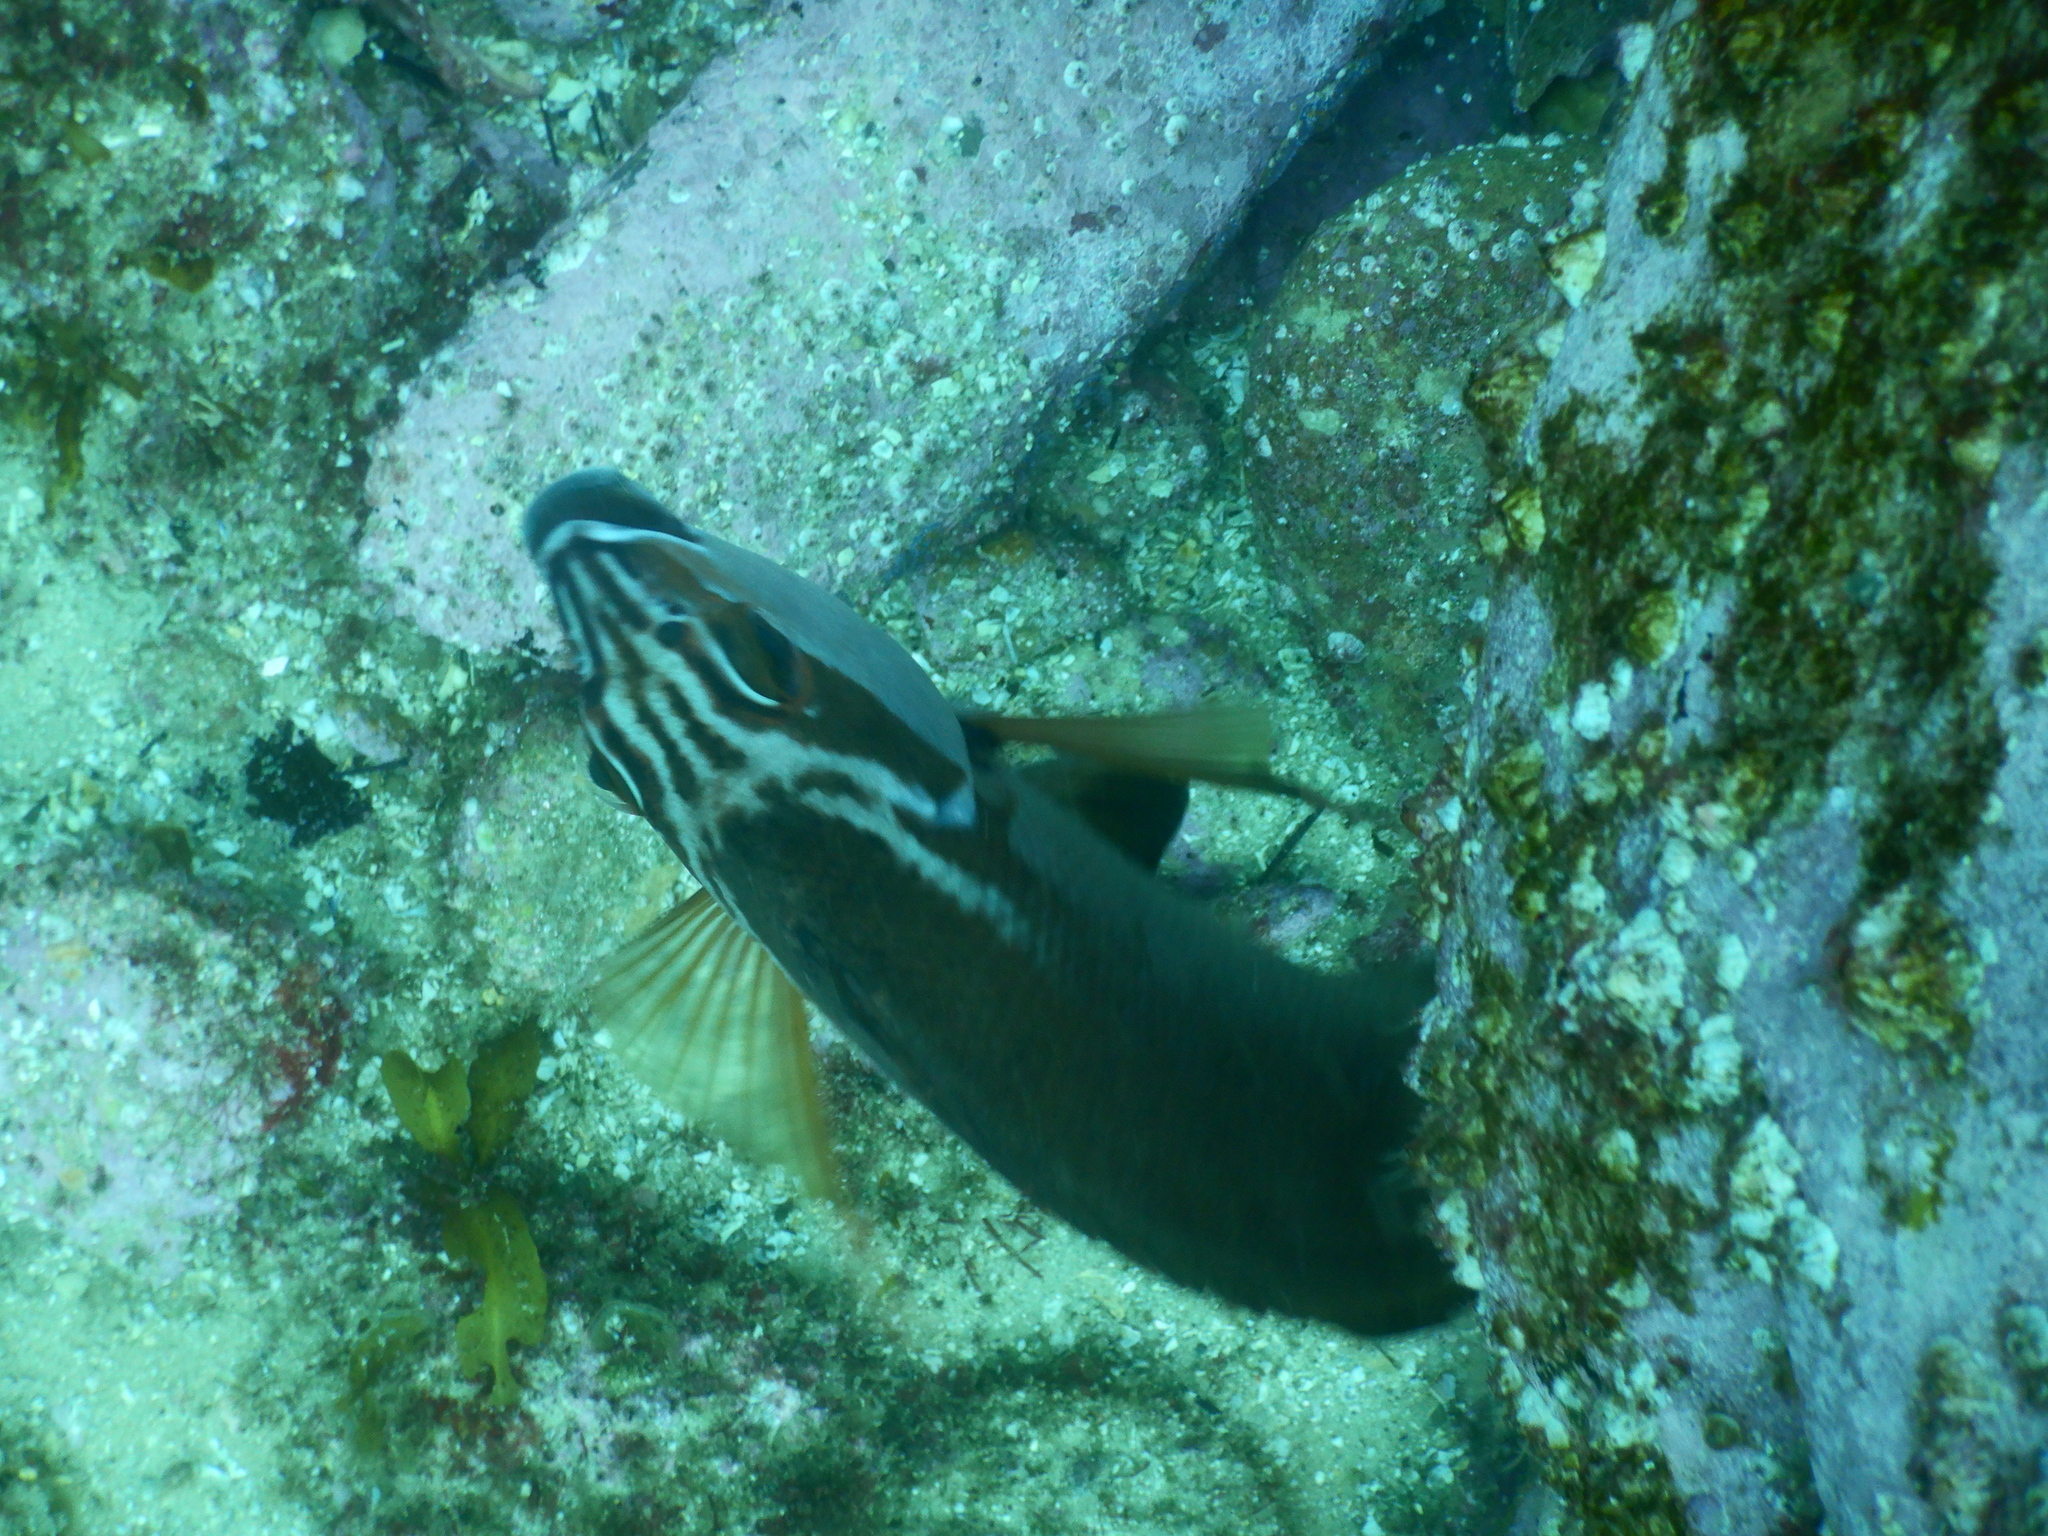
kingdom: Animalia
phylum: Chordata
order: Perciformes
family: Latridae
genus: Morwong
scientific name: Morwong fuscus
